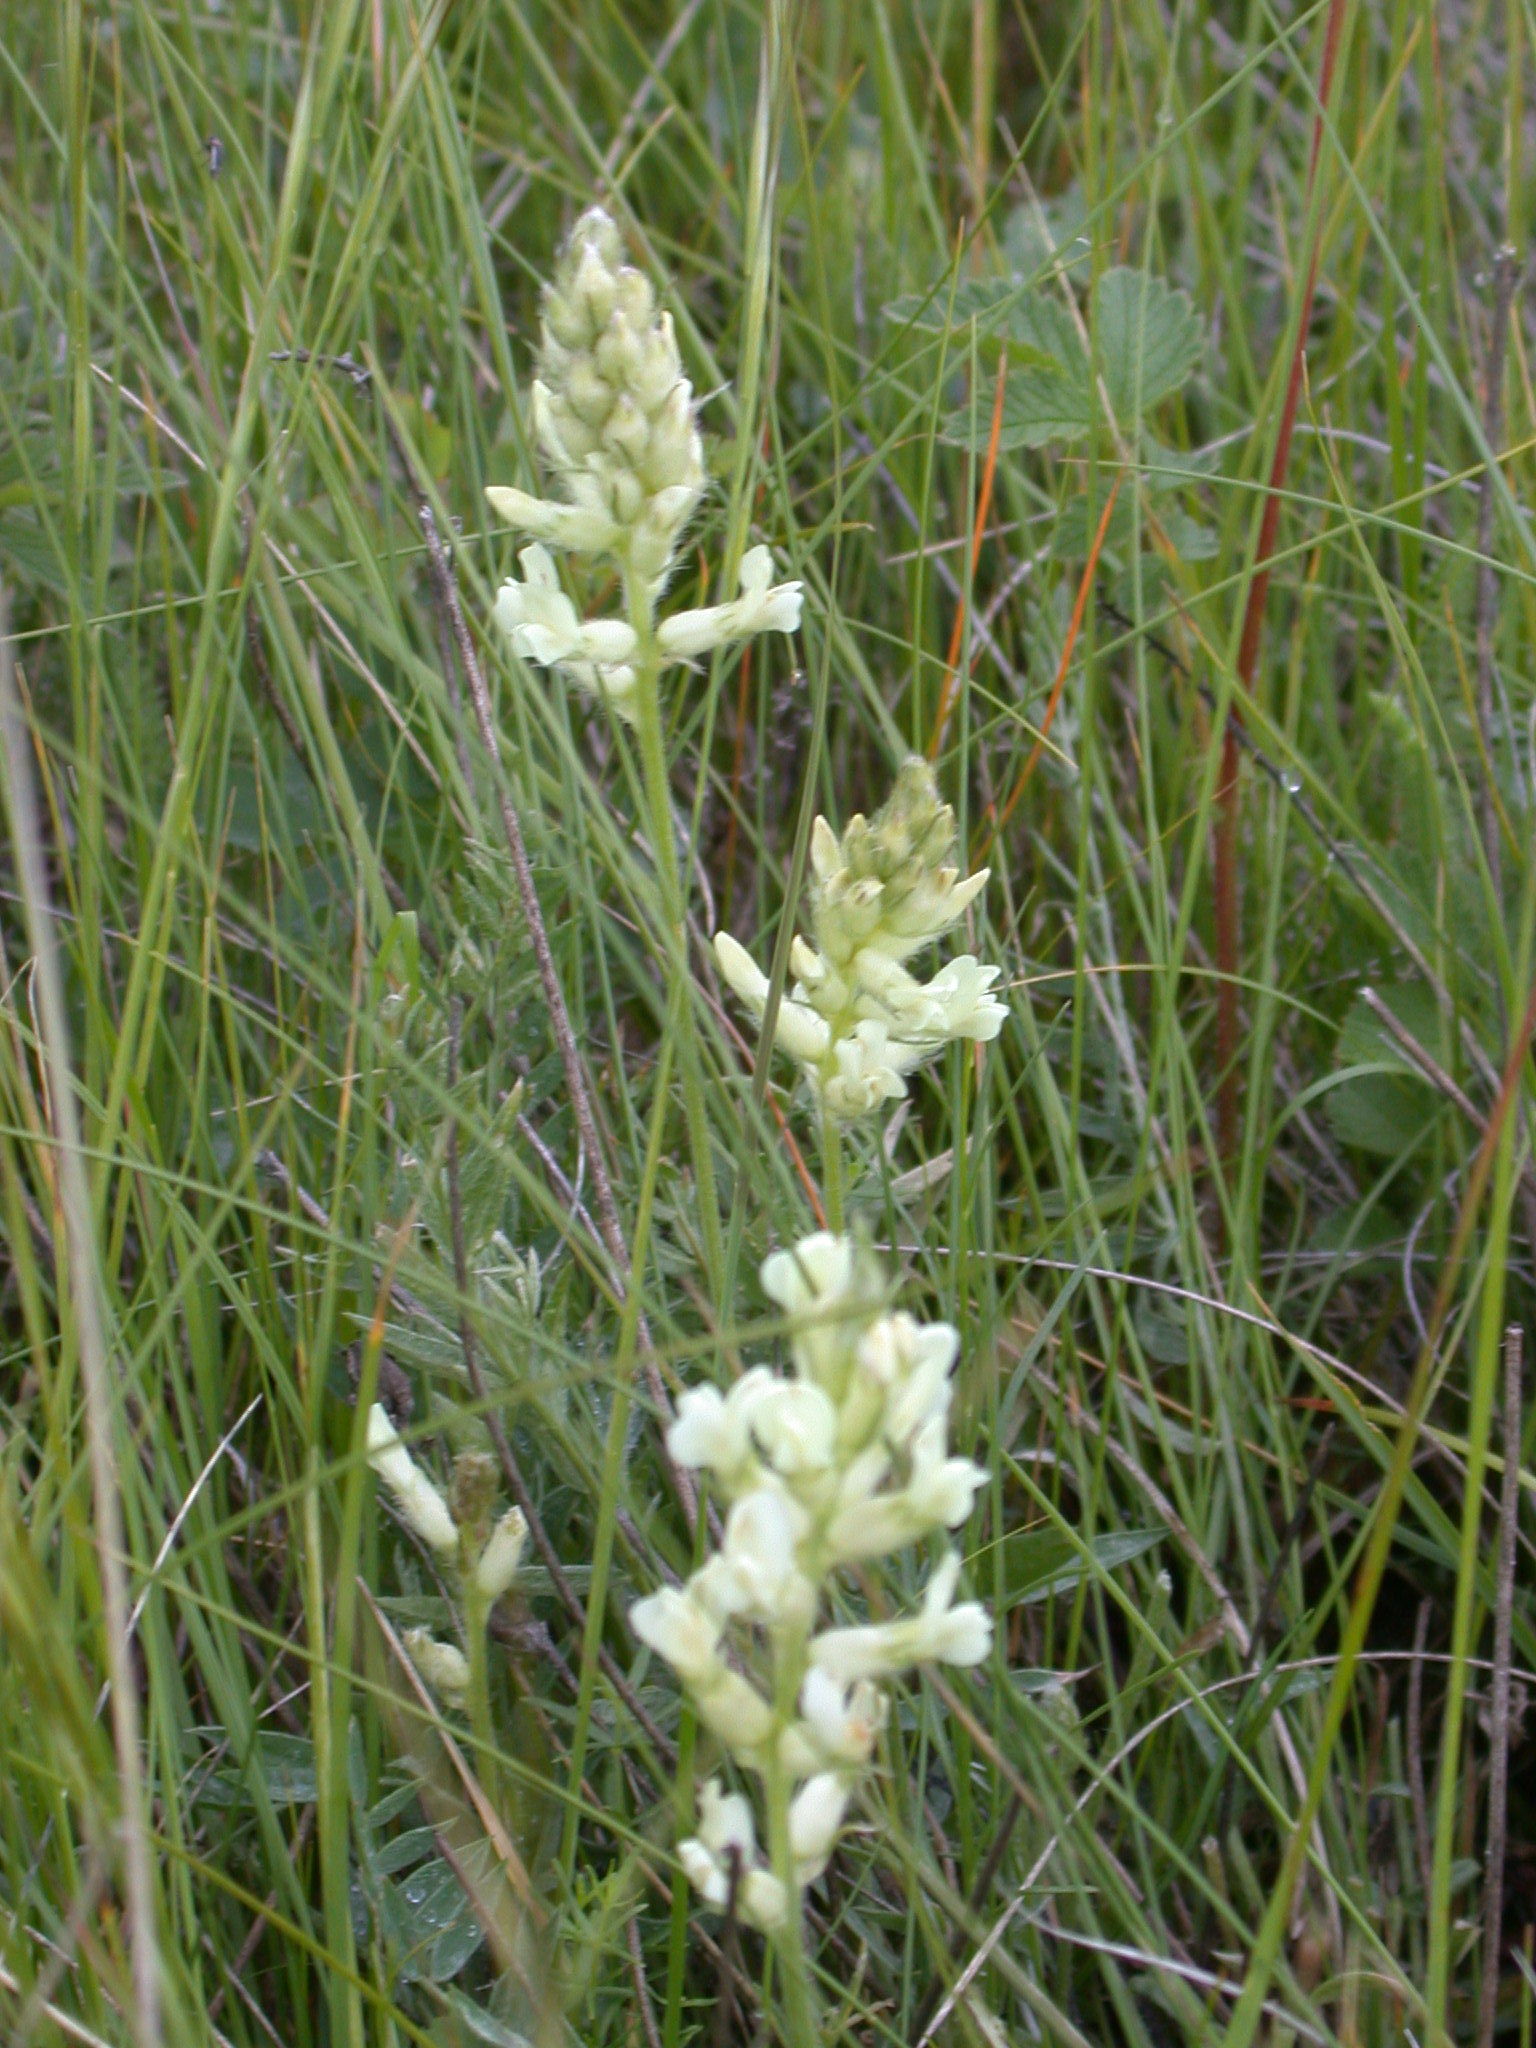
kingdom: Plantae
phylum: Tracheophyta
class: Magnoliopsida
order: Fabales
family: Fabaceae
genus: Oxytropis
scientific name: Oxytropis campestris
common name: Field locoweed
